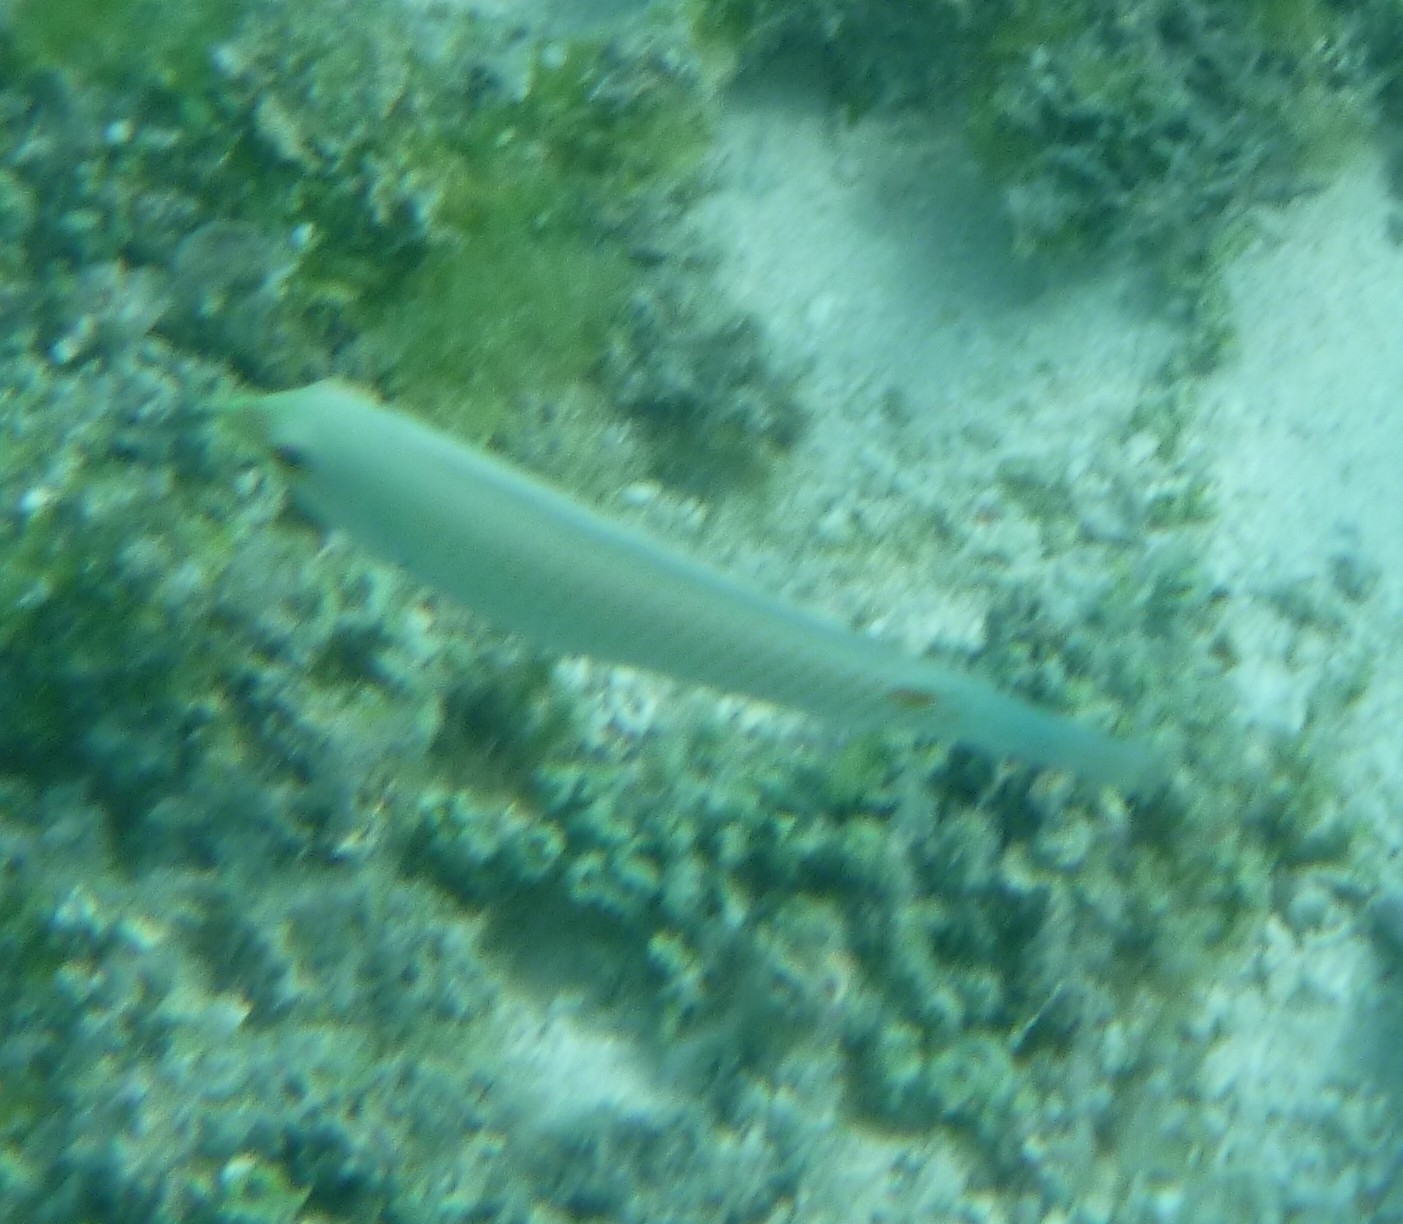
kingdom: Animalia
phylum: Chordata
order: Perciformes
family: Labridae
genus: Halichoeres
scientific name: Halichoeres trimaculatus
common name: Three-spot wrasse
